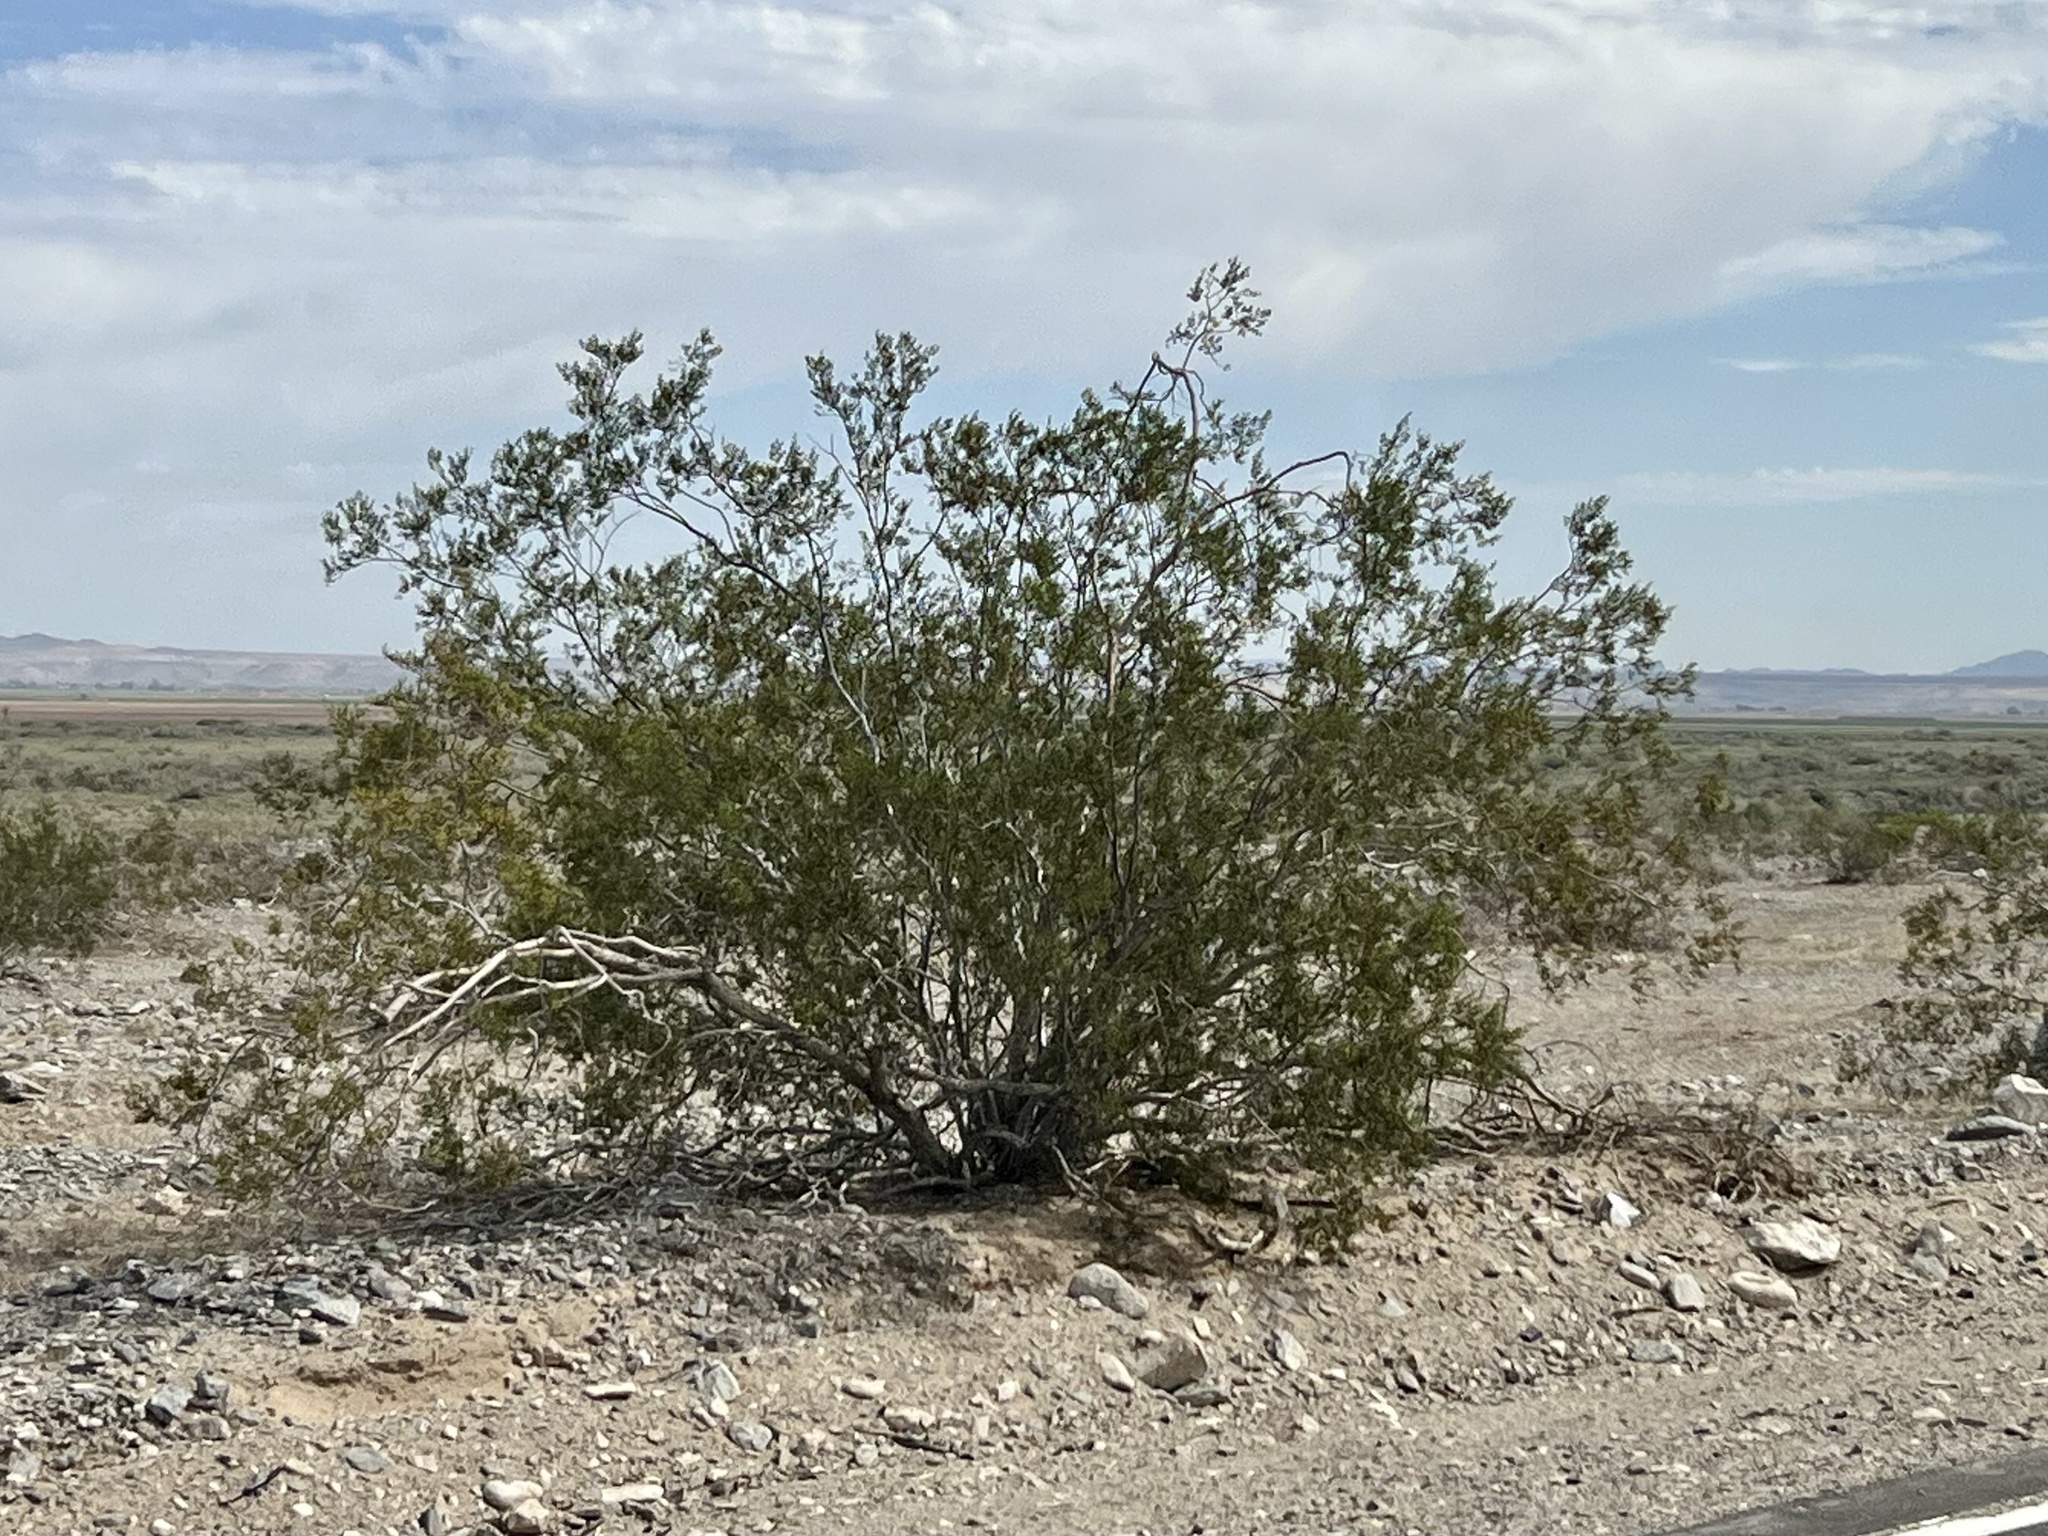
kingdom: Plantae
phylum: Tracheophyta
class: Magnoliopsida
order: Zygophyllales
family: Zygophyllaceae
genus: Larrea
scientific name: Larrea tridentata
